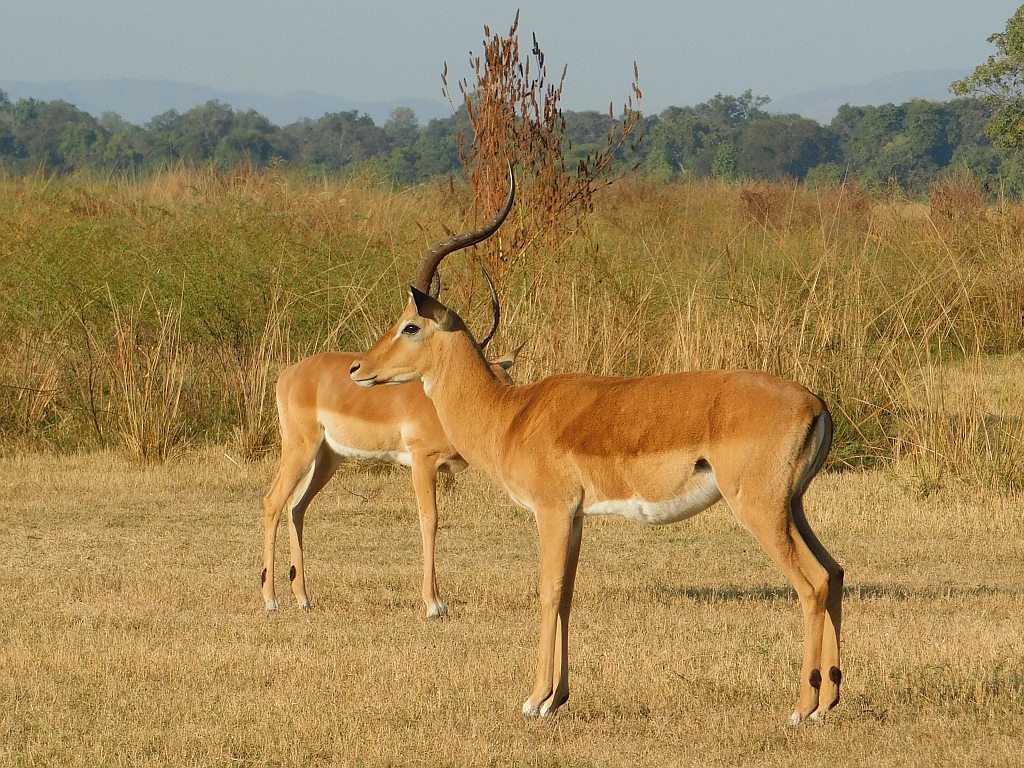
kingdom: Animalia
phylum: Chordata
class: Mammalia
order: Artiodactyla
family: Bovidae
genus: Aepyceros
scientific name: Aepyceros melampus
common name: Impala
